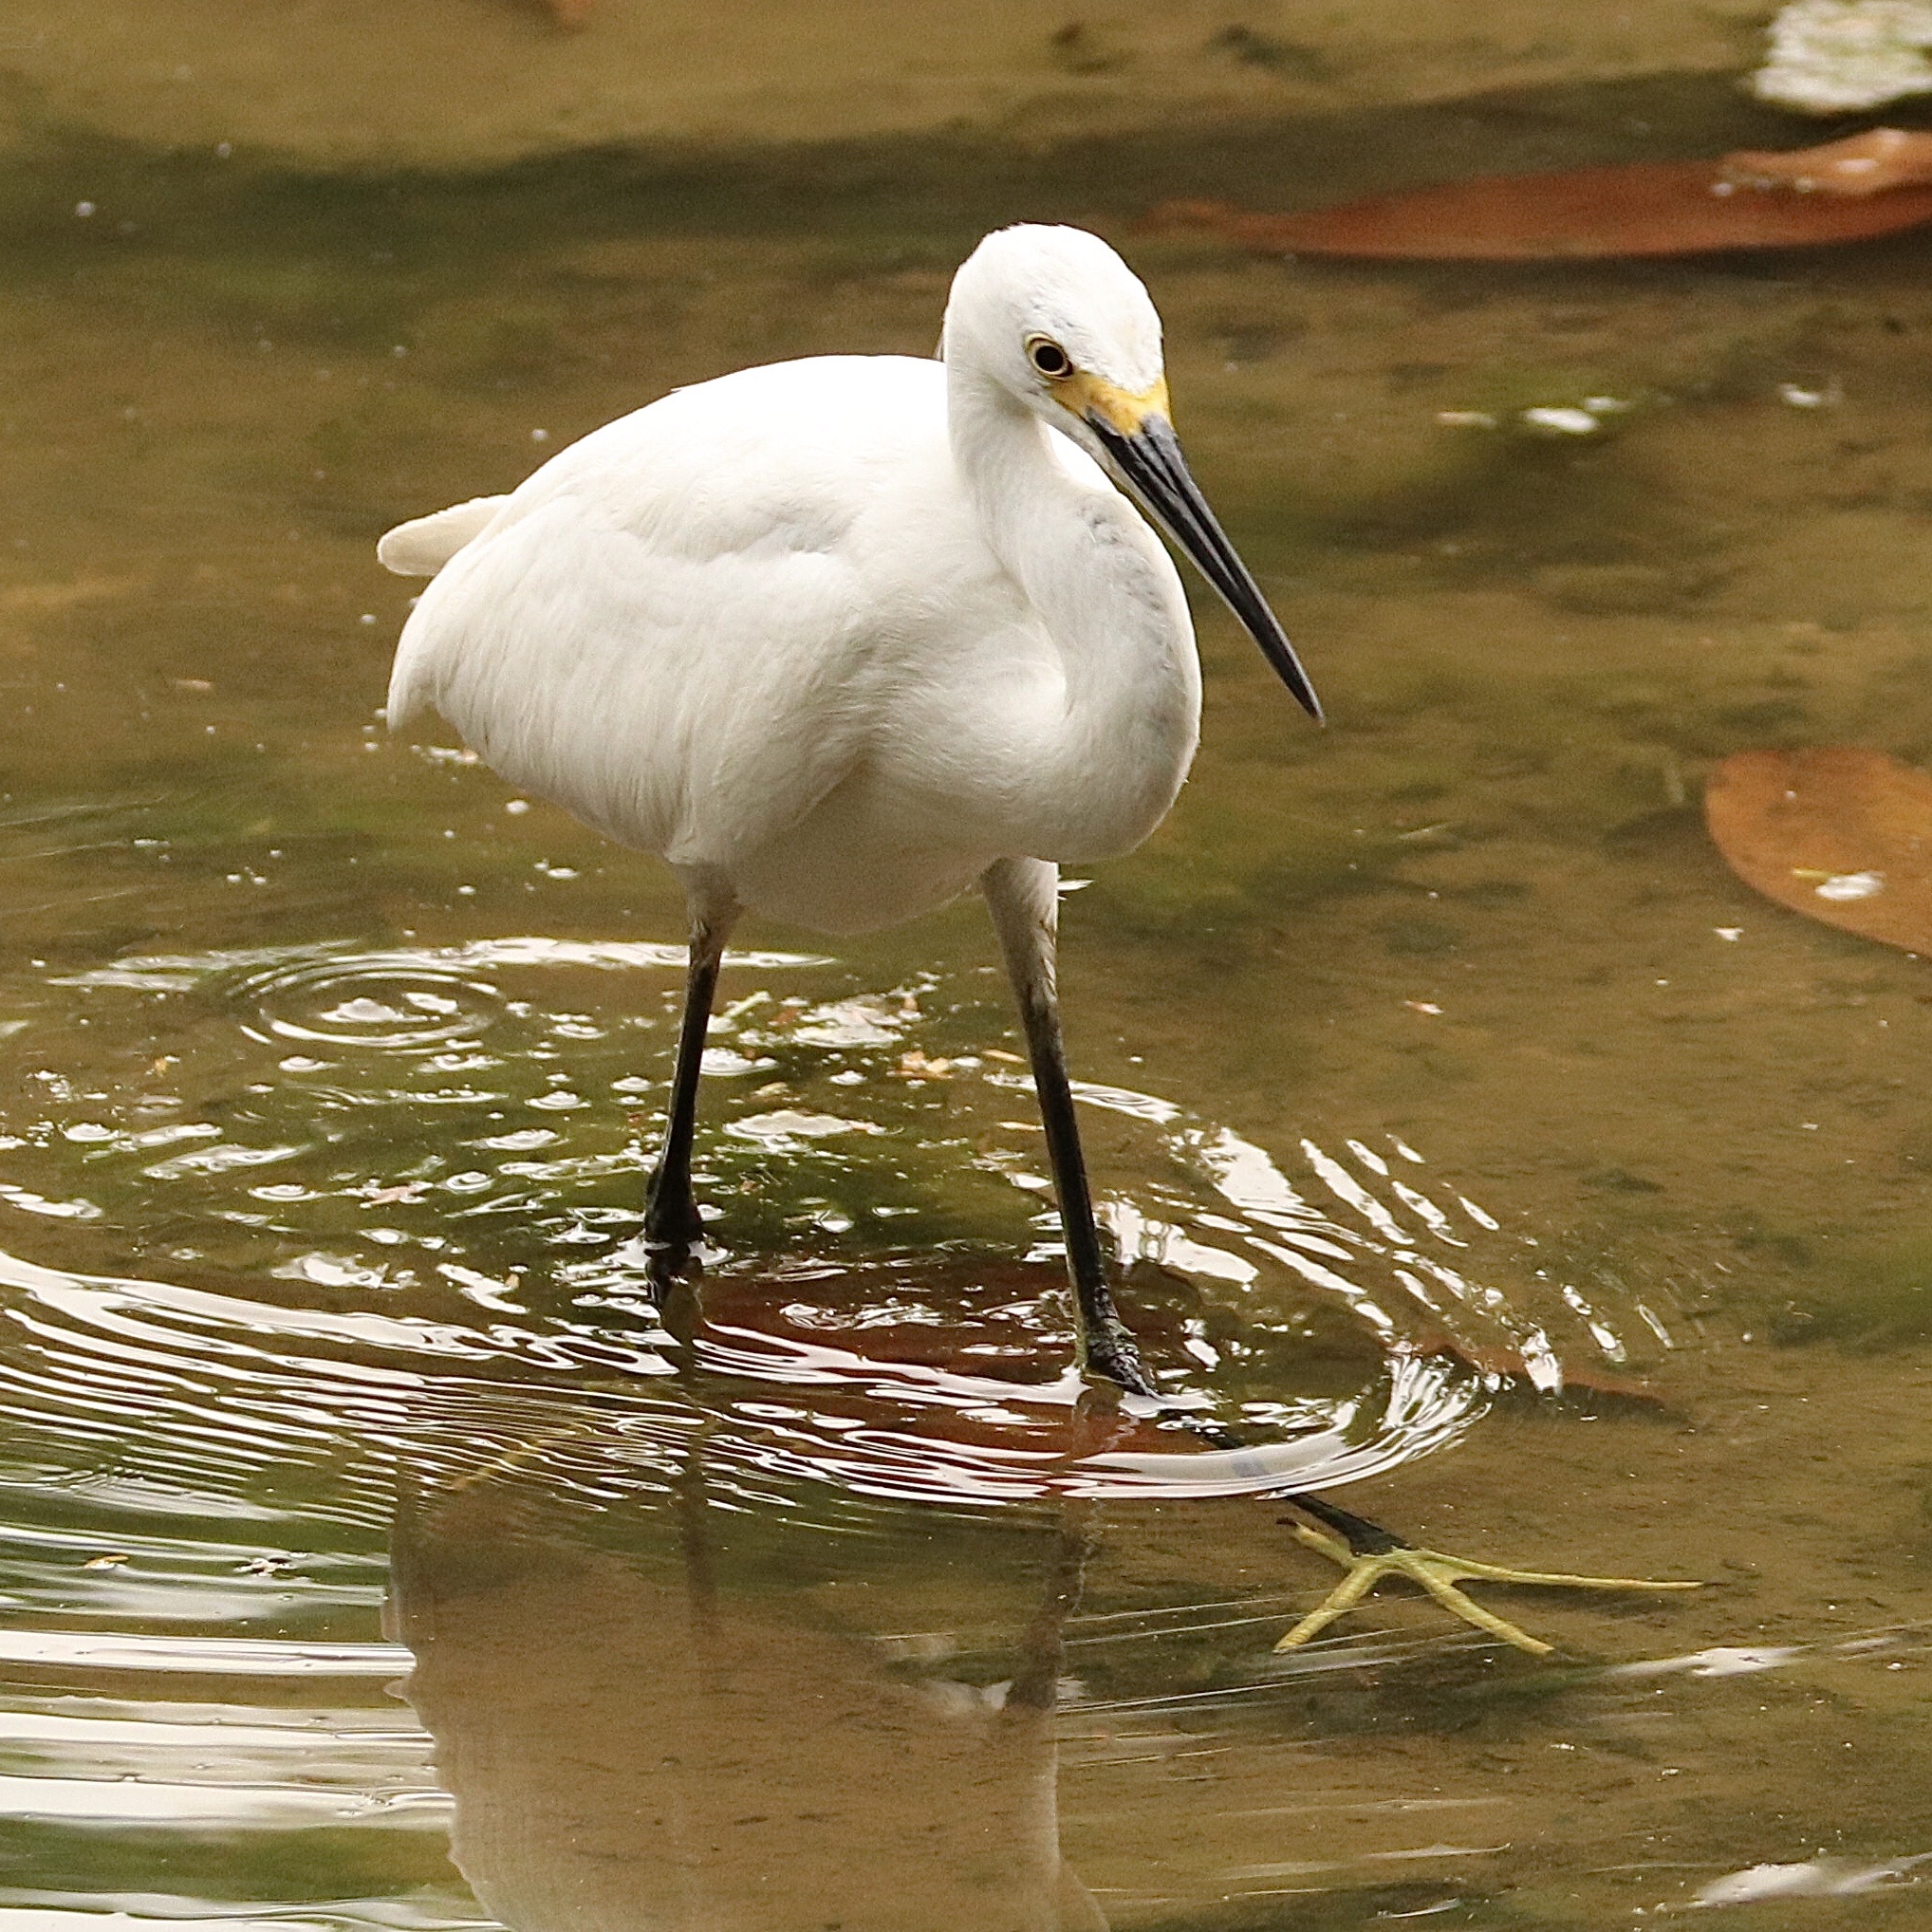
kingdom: Animalia
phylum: Chordata
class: Aves
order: Pelecaniformes
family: Ardeidae
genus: Egretta
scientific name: Egretta thula
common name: Snowy egret
